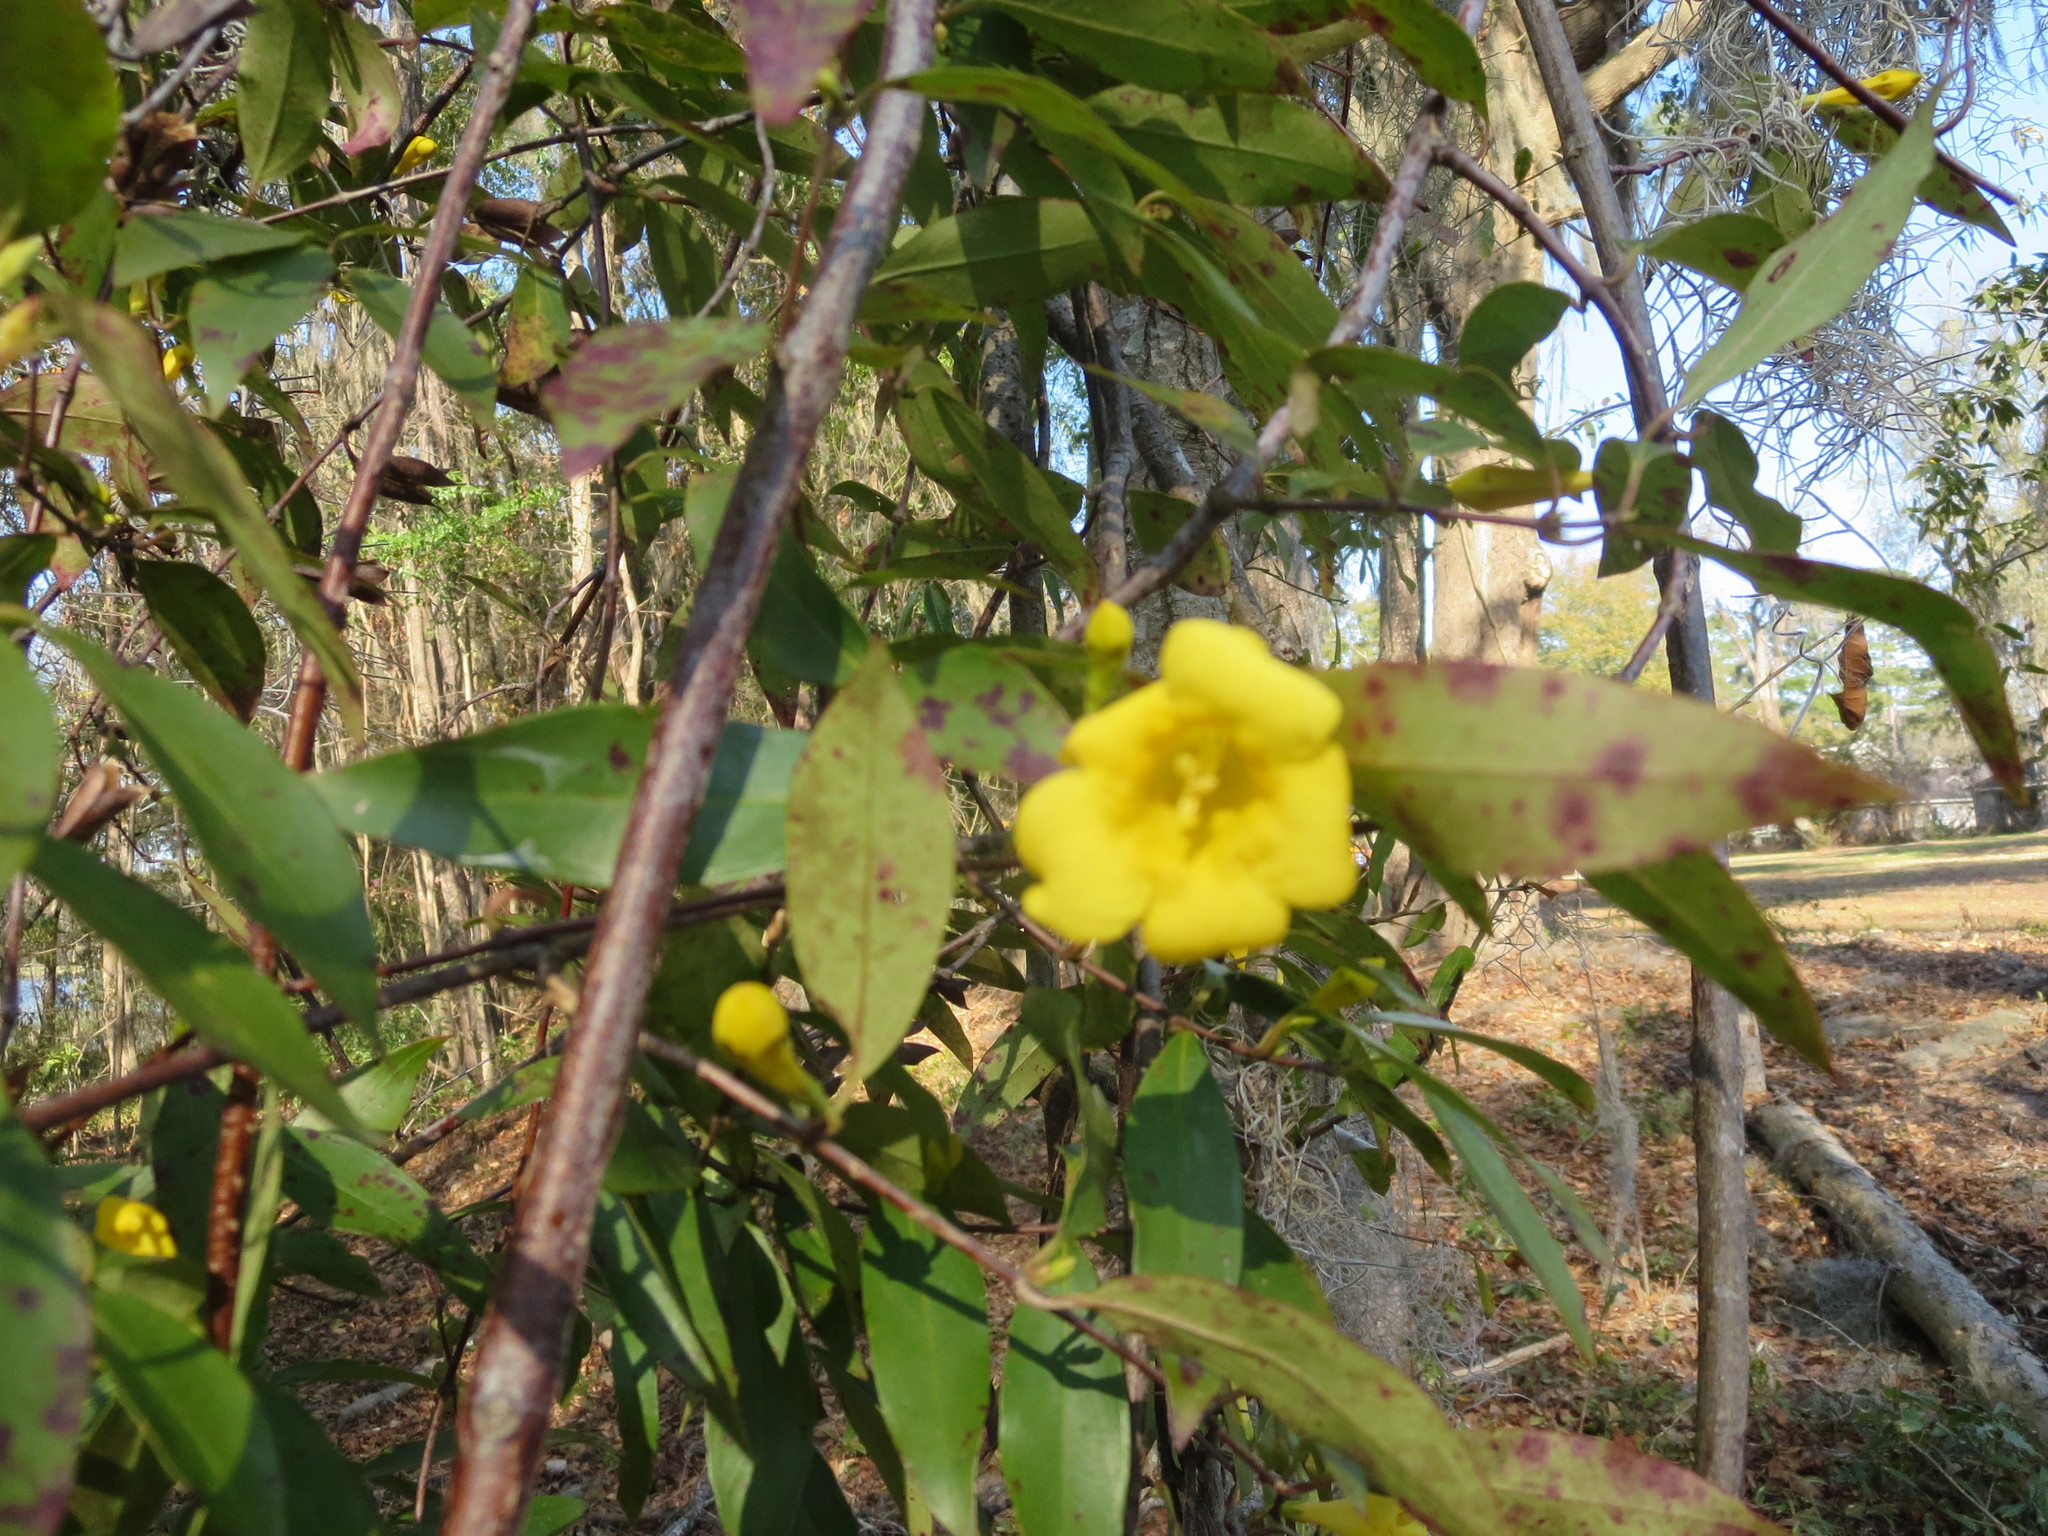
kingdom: Plantae
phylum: Tracheophyta
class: Magnoliopsida
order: Gentianales
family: Gelsemiaceae
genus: Gelsemium
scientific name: Gelsemium sempervirens
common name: Carolina-jasmine
